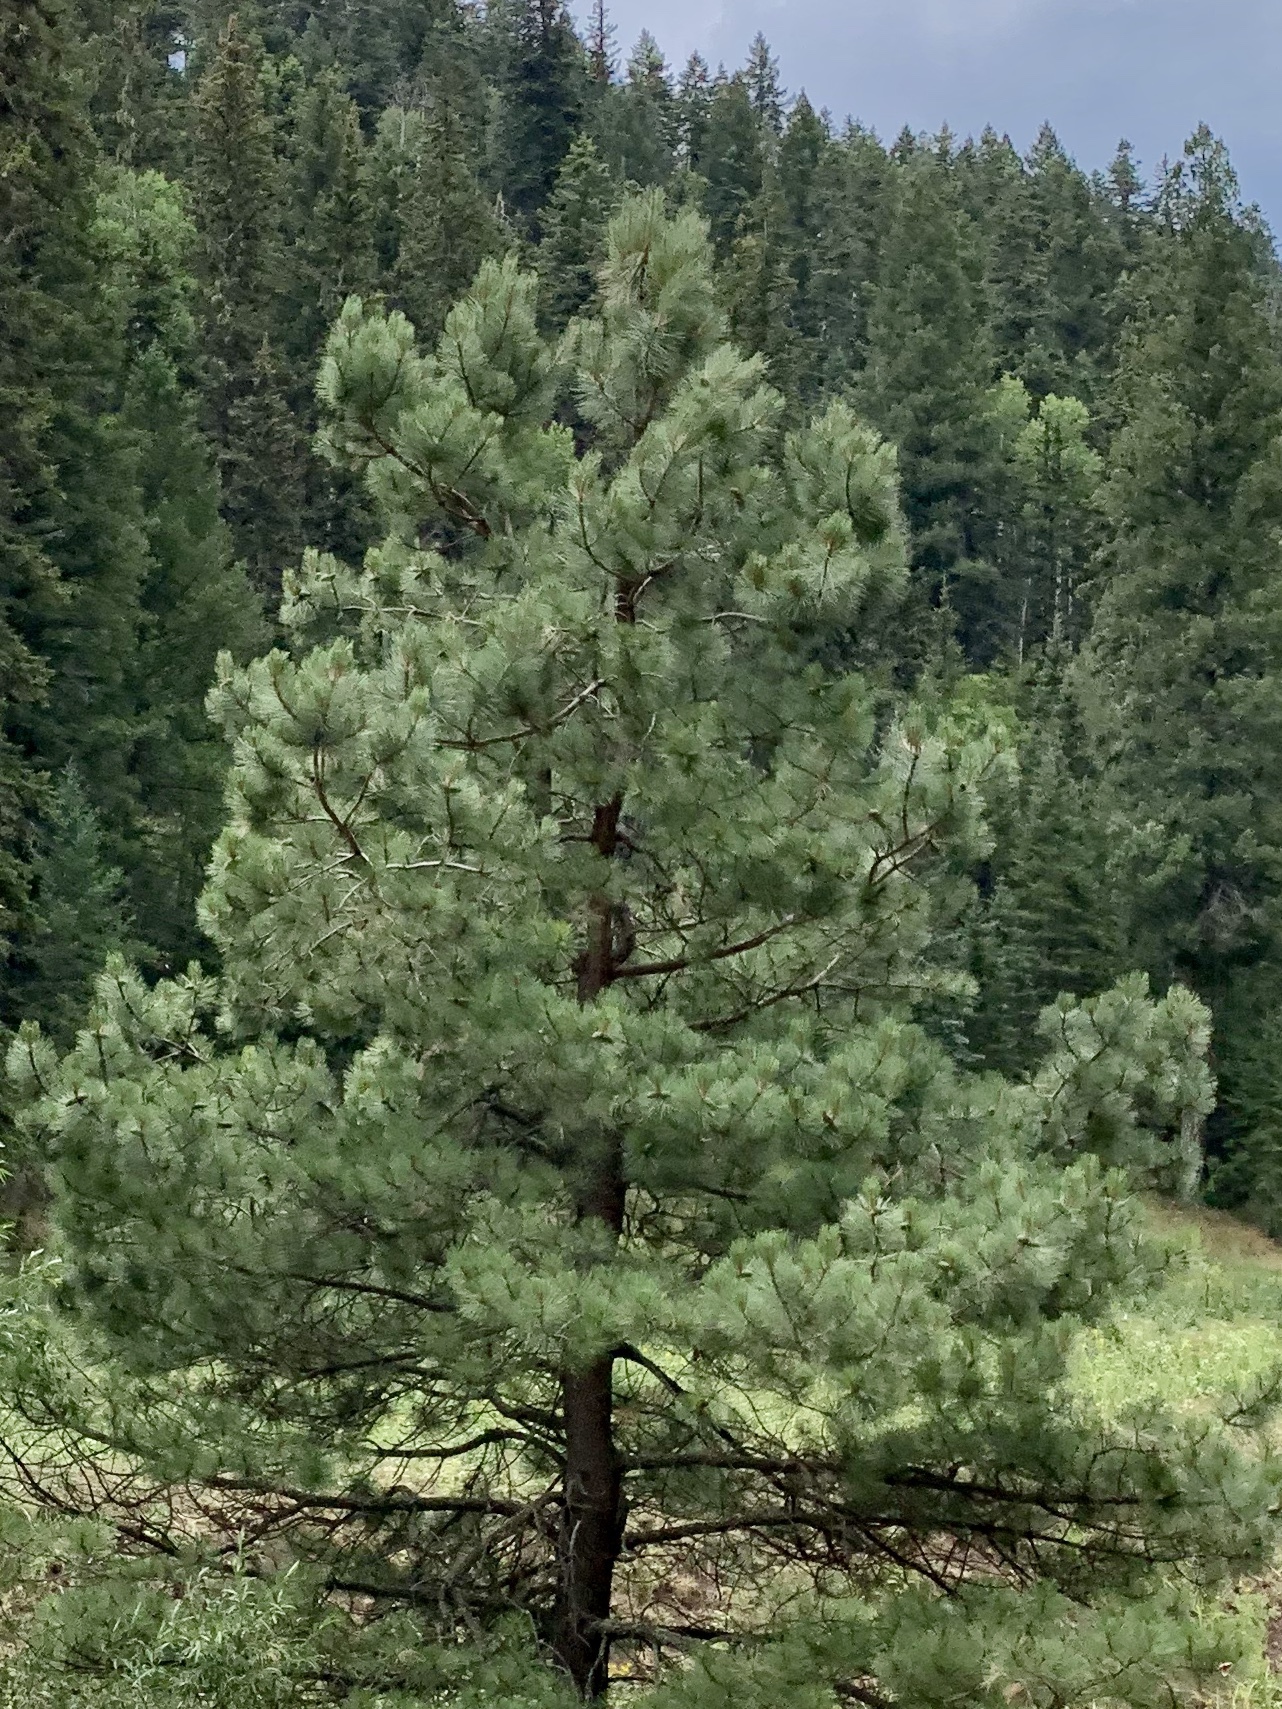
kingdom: Plantae
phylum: Tracheophyta
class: Pinopsida
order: Pinales
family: Pinaceae
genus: Pinus
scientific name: Pinus ponderosa
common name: Western yellow-pine
